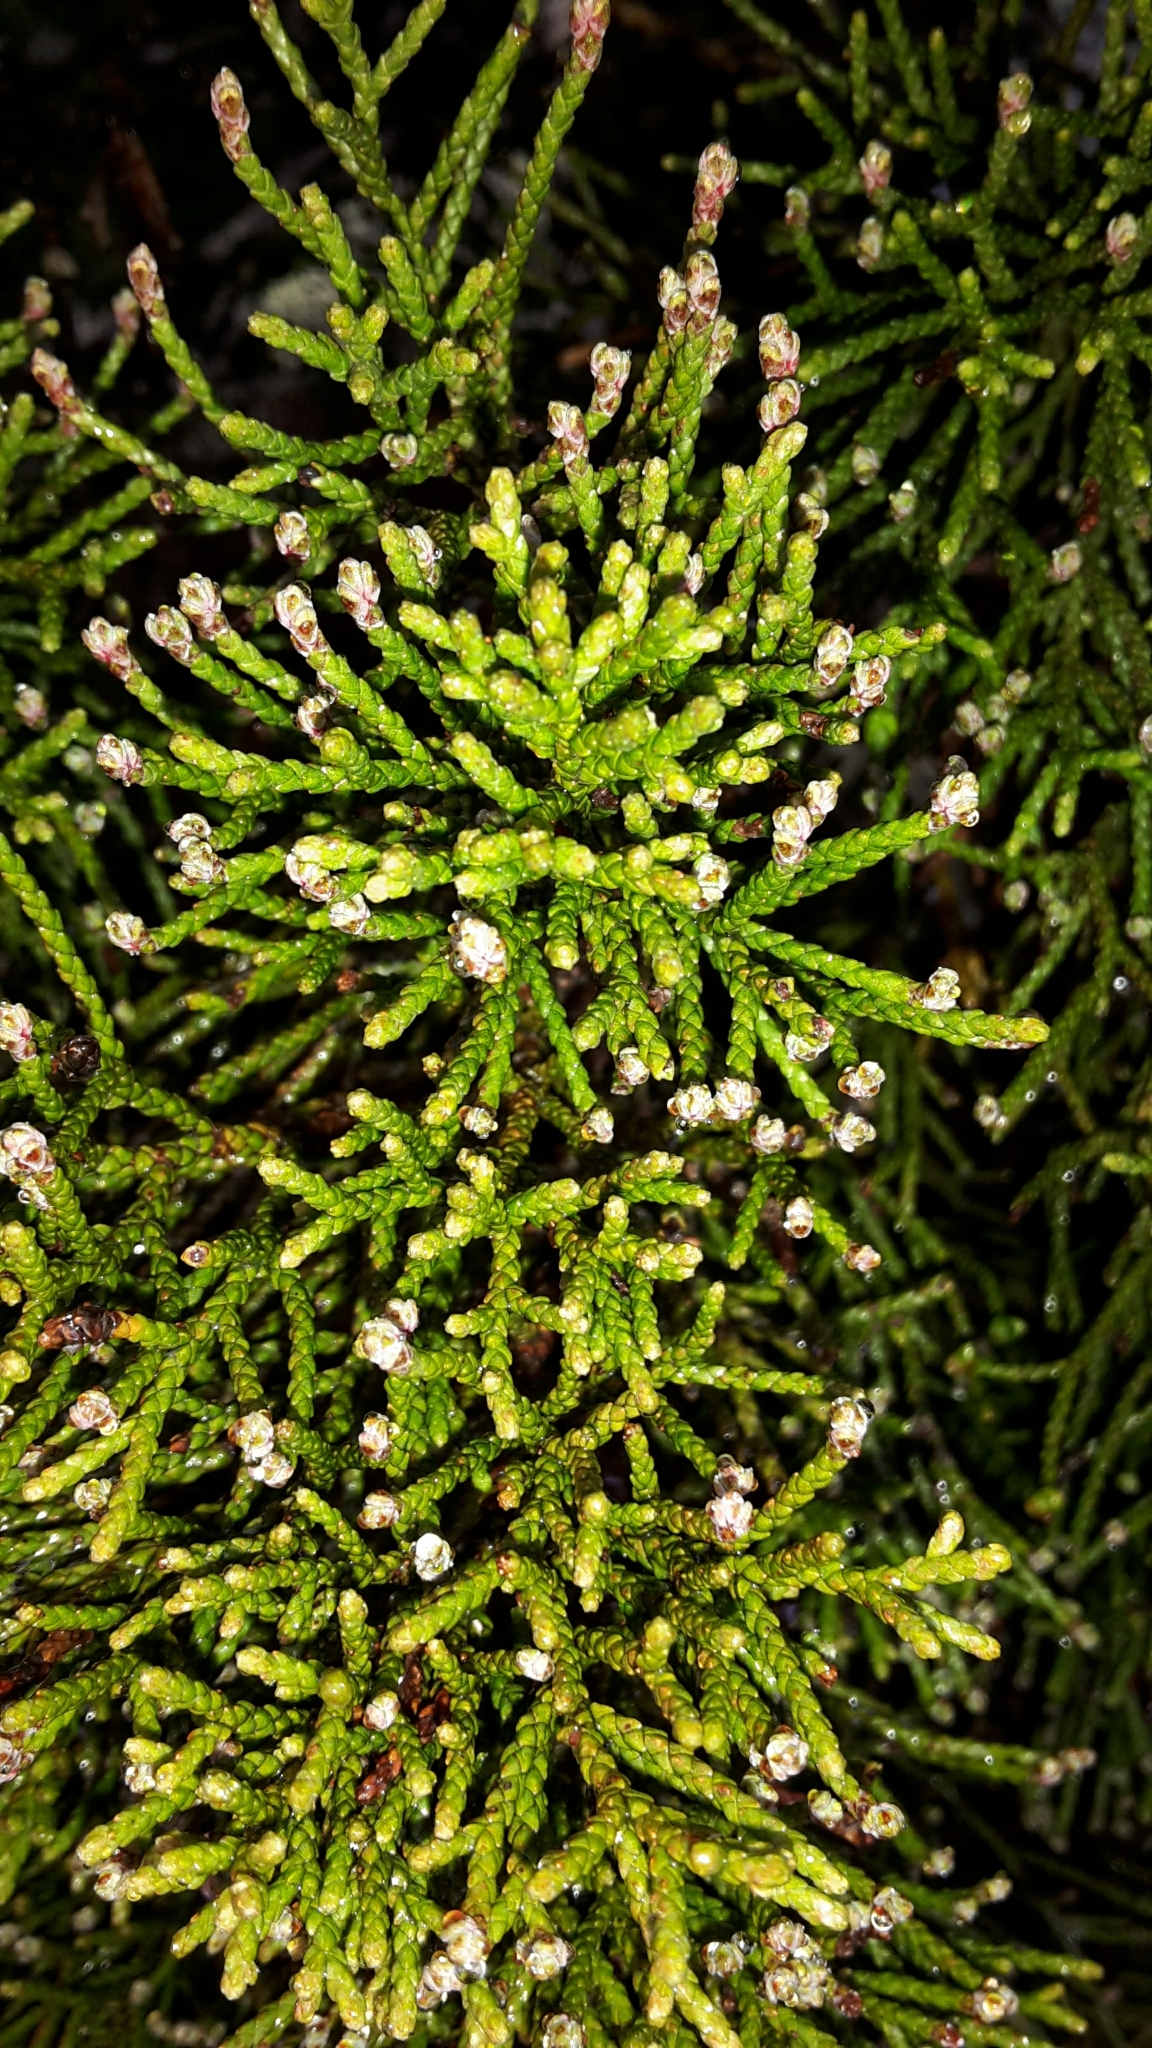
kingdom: Plantae
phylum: Tracheophyta
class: Pinopsida
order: Pinales
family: Podocarpaceae
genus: Halocarpus
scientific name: Halocarpus bidwillii
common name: Bog pine
